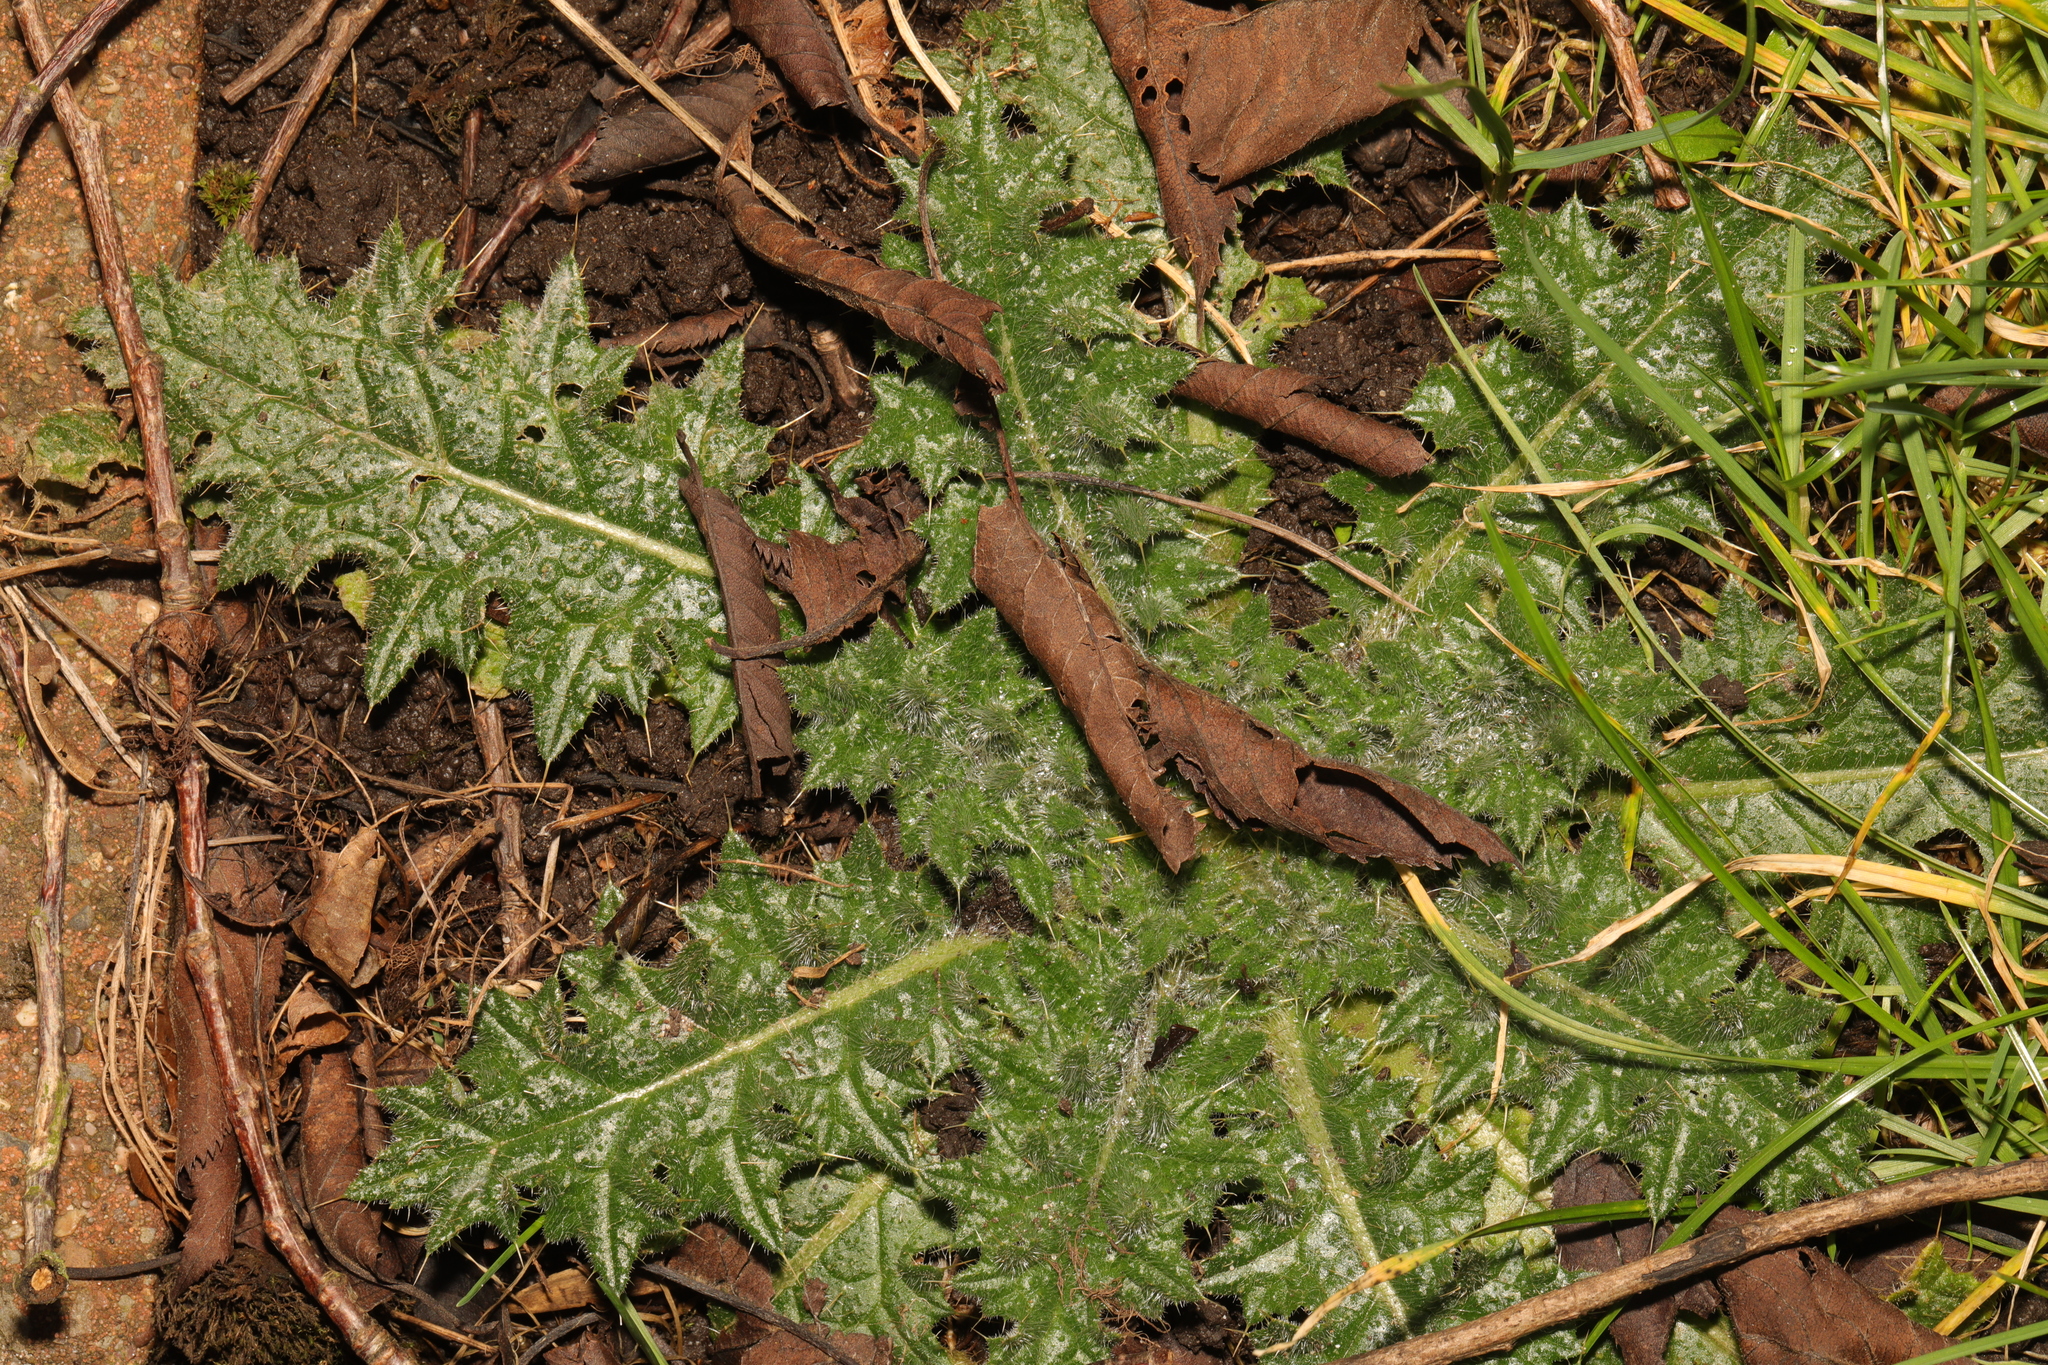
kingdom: Plantae
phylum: Tracheophyta
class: Magnoliopsida
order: Asterales
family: Asteraceae
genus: Cirsium
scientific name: Cirsium vulgare
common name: Bull thistle
